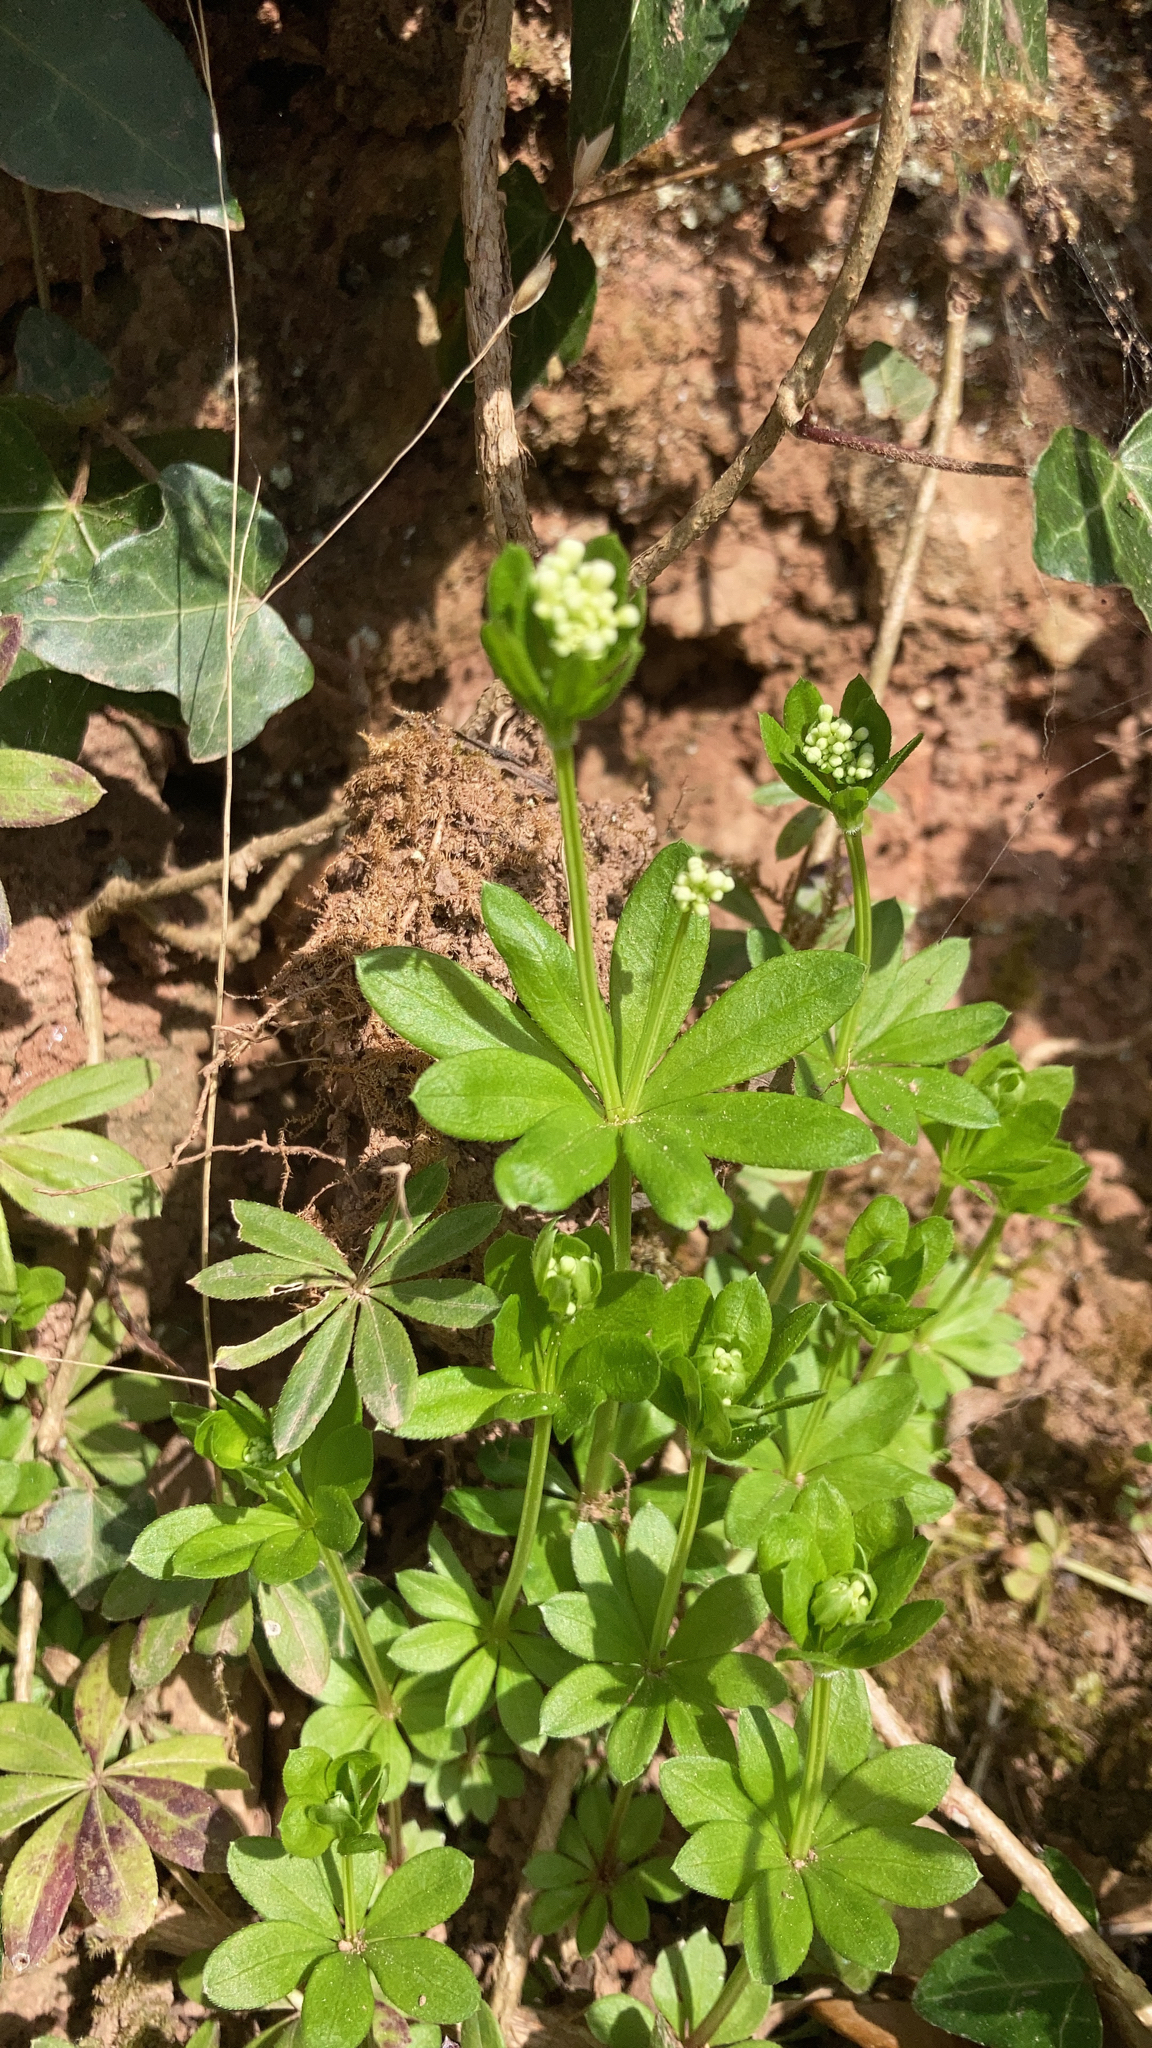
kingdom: Plantae
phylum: Tracheophyta
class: Magnoliopsida
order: Gentianales
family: Rubiaceae
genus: Galium
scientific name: Galium odoratum
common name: Sweet woodruff
